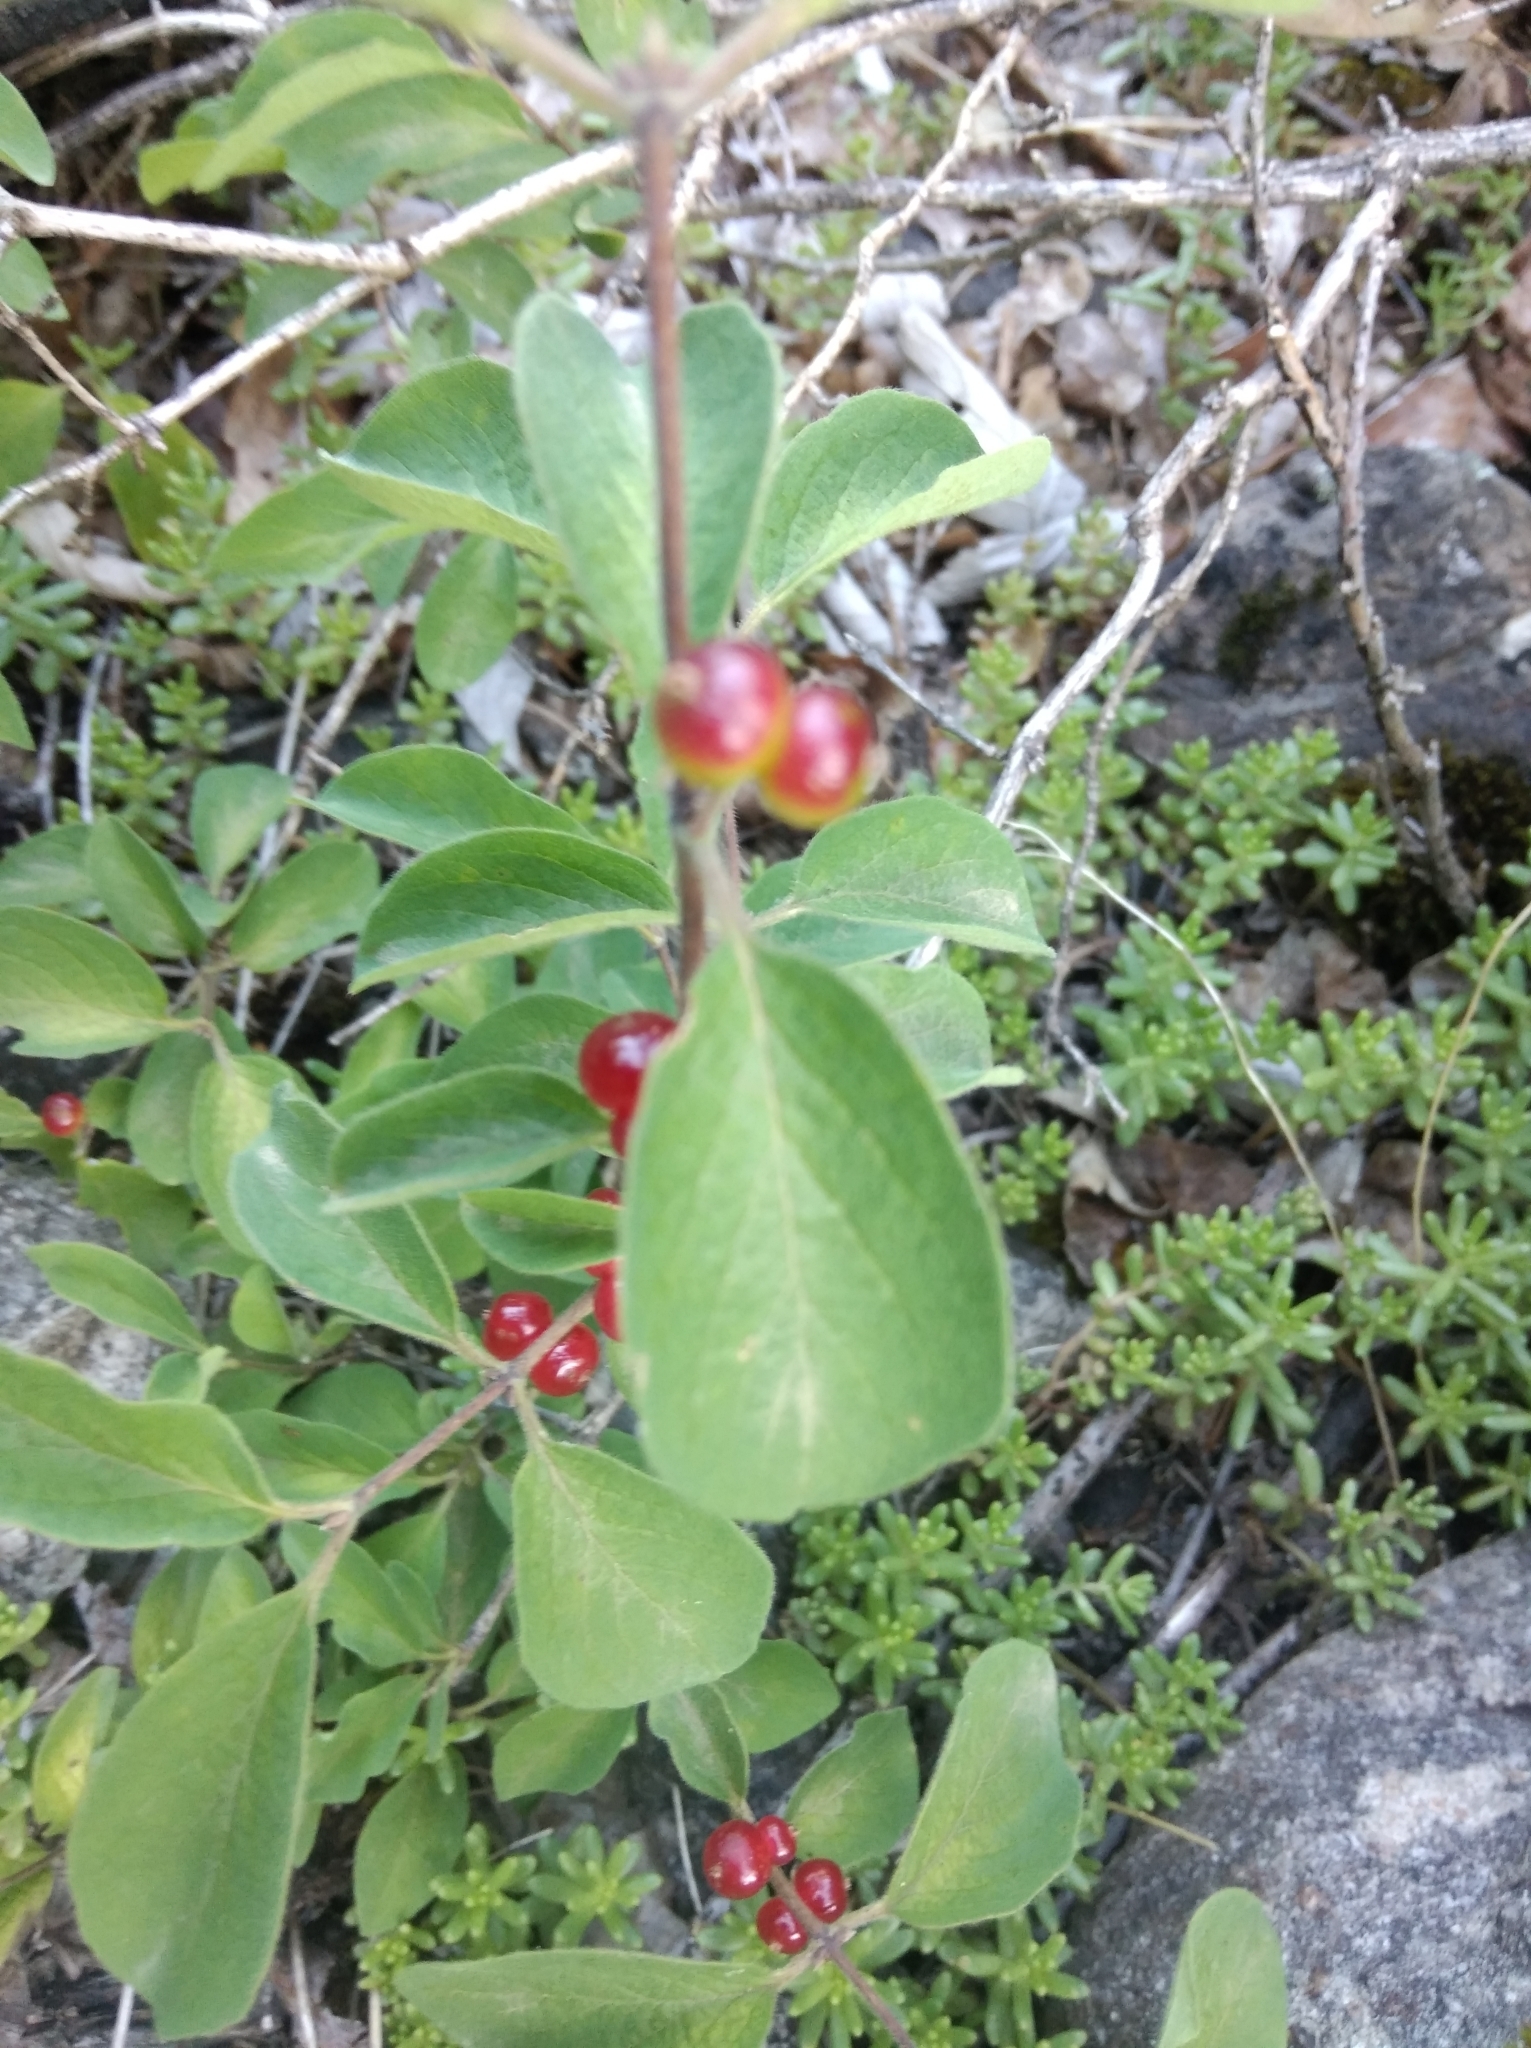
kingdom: Plantae
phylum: Tracheophyta
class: Magnoliopsida
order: Dipsacales
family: Caprifoliaceae
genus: Lonicera
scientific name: Lonicera xylosteum
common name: Fly honeysuckle
